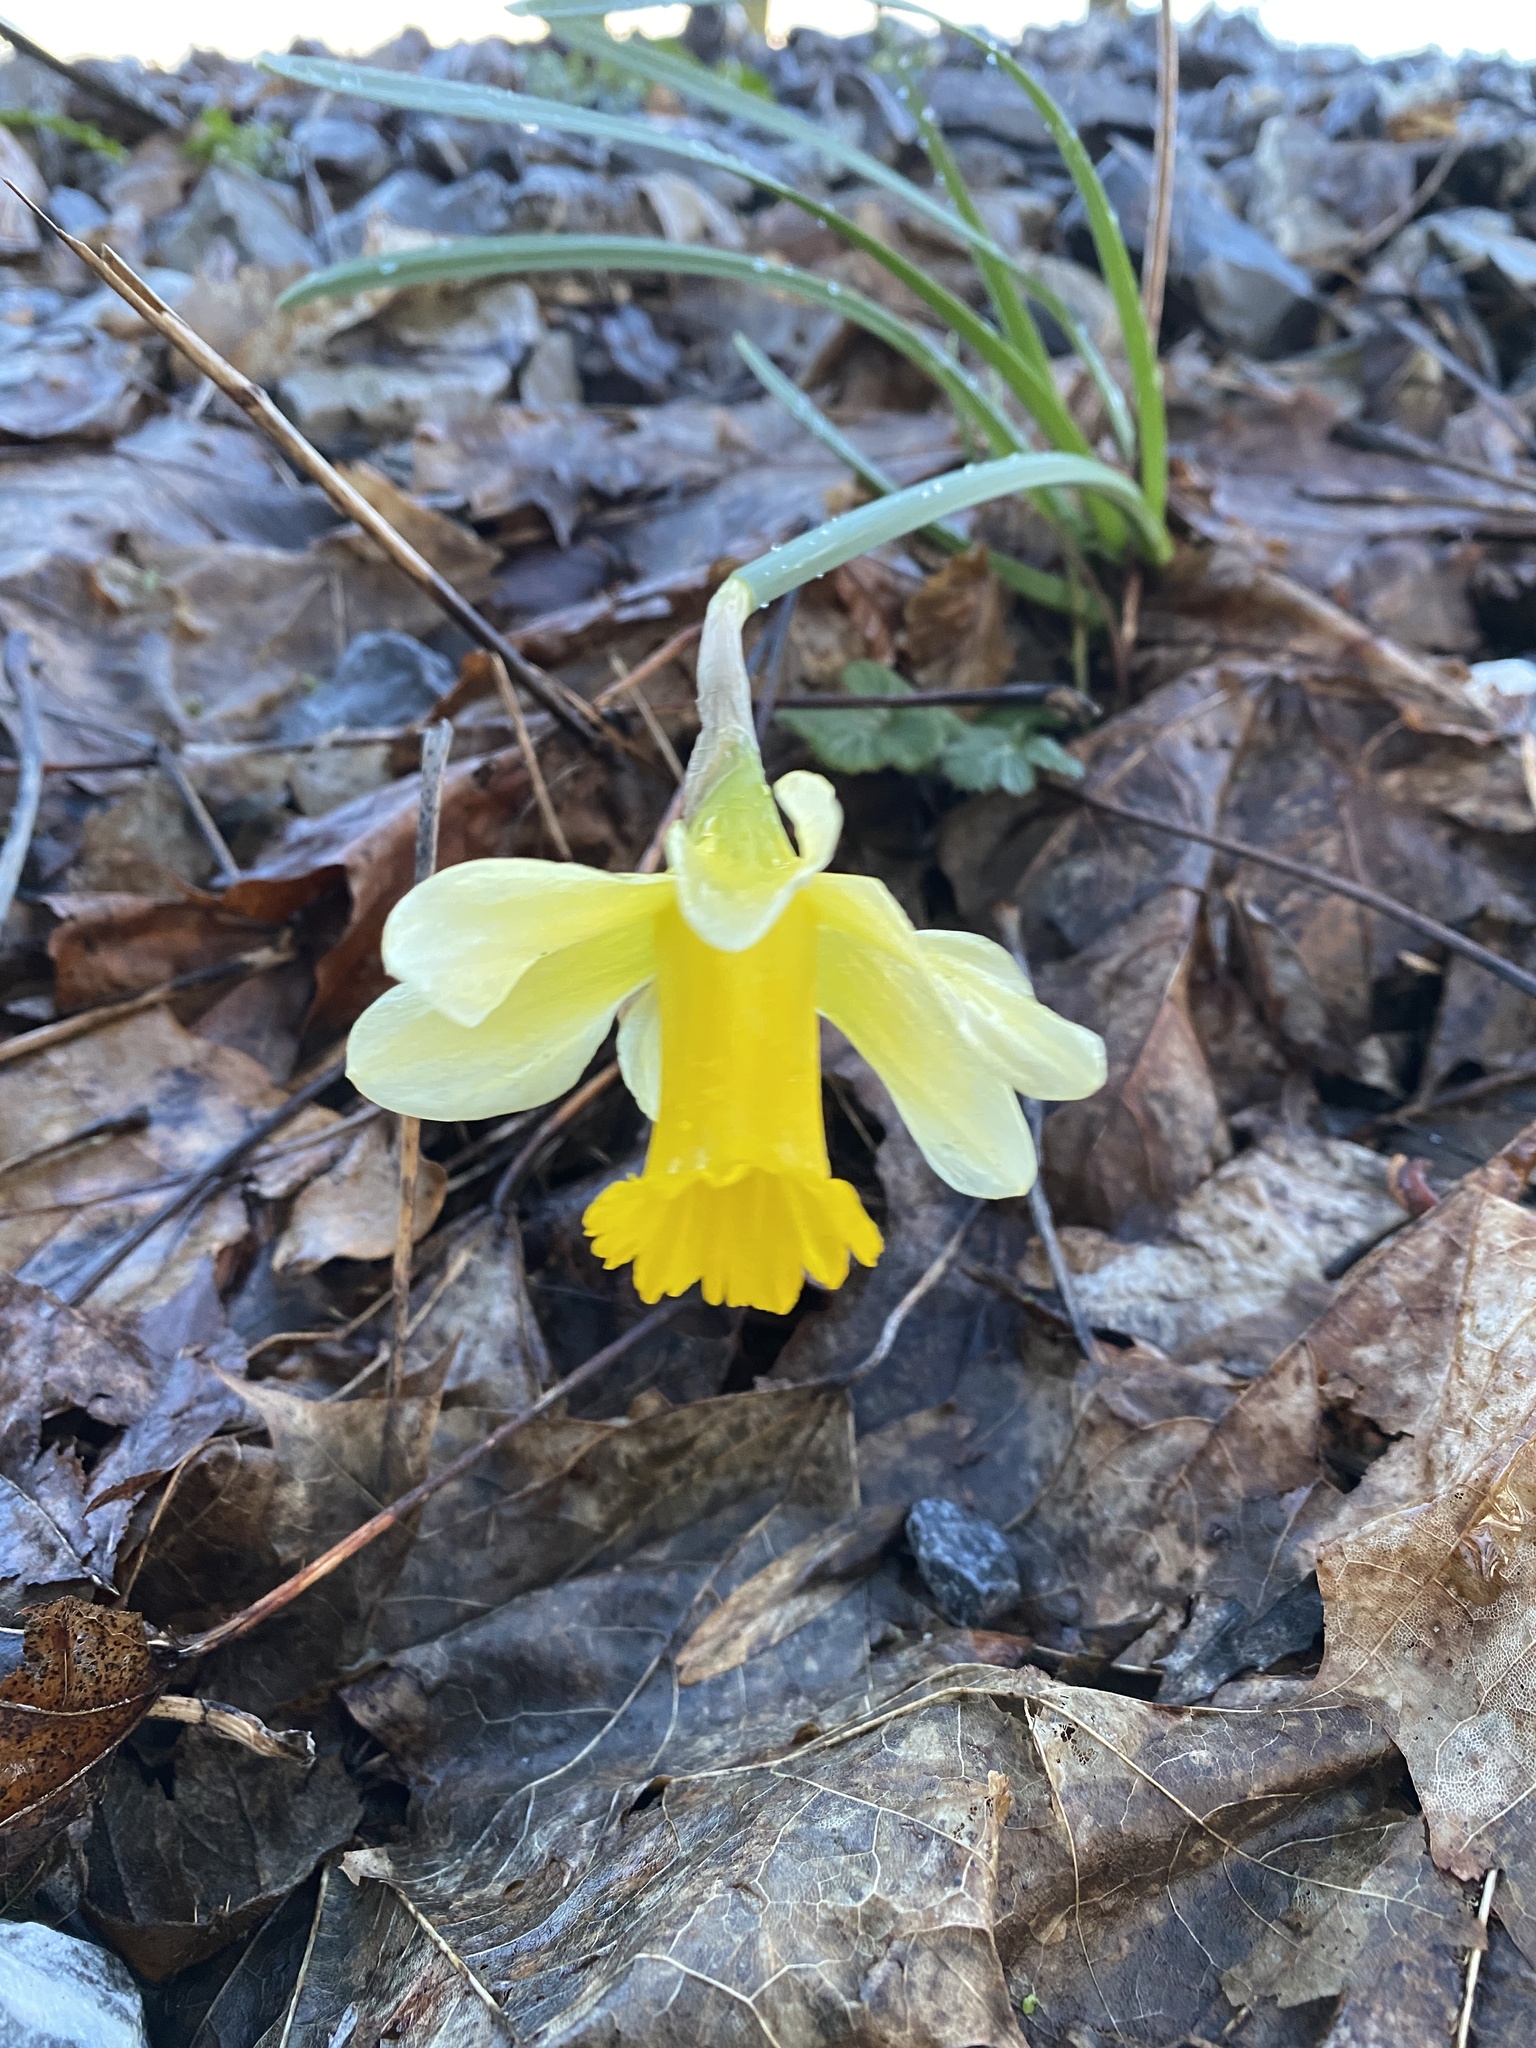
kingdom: Plantae
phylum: Tracheophyta
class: Liliopsida
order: Asparagales
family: Amaryllidaceae
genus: Narcissus
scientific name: Narcissus pseudonarcissus
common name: Daffodil
